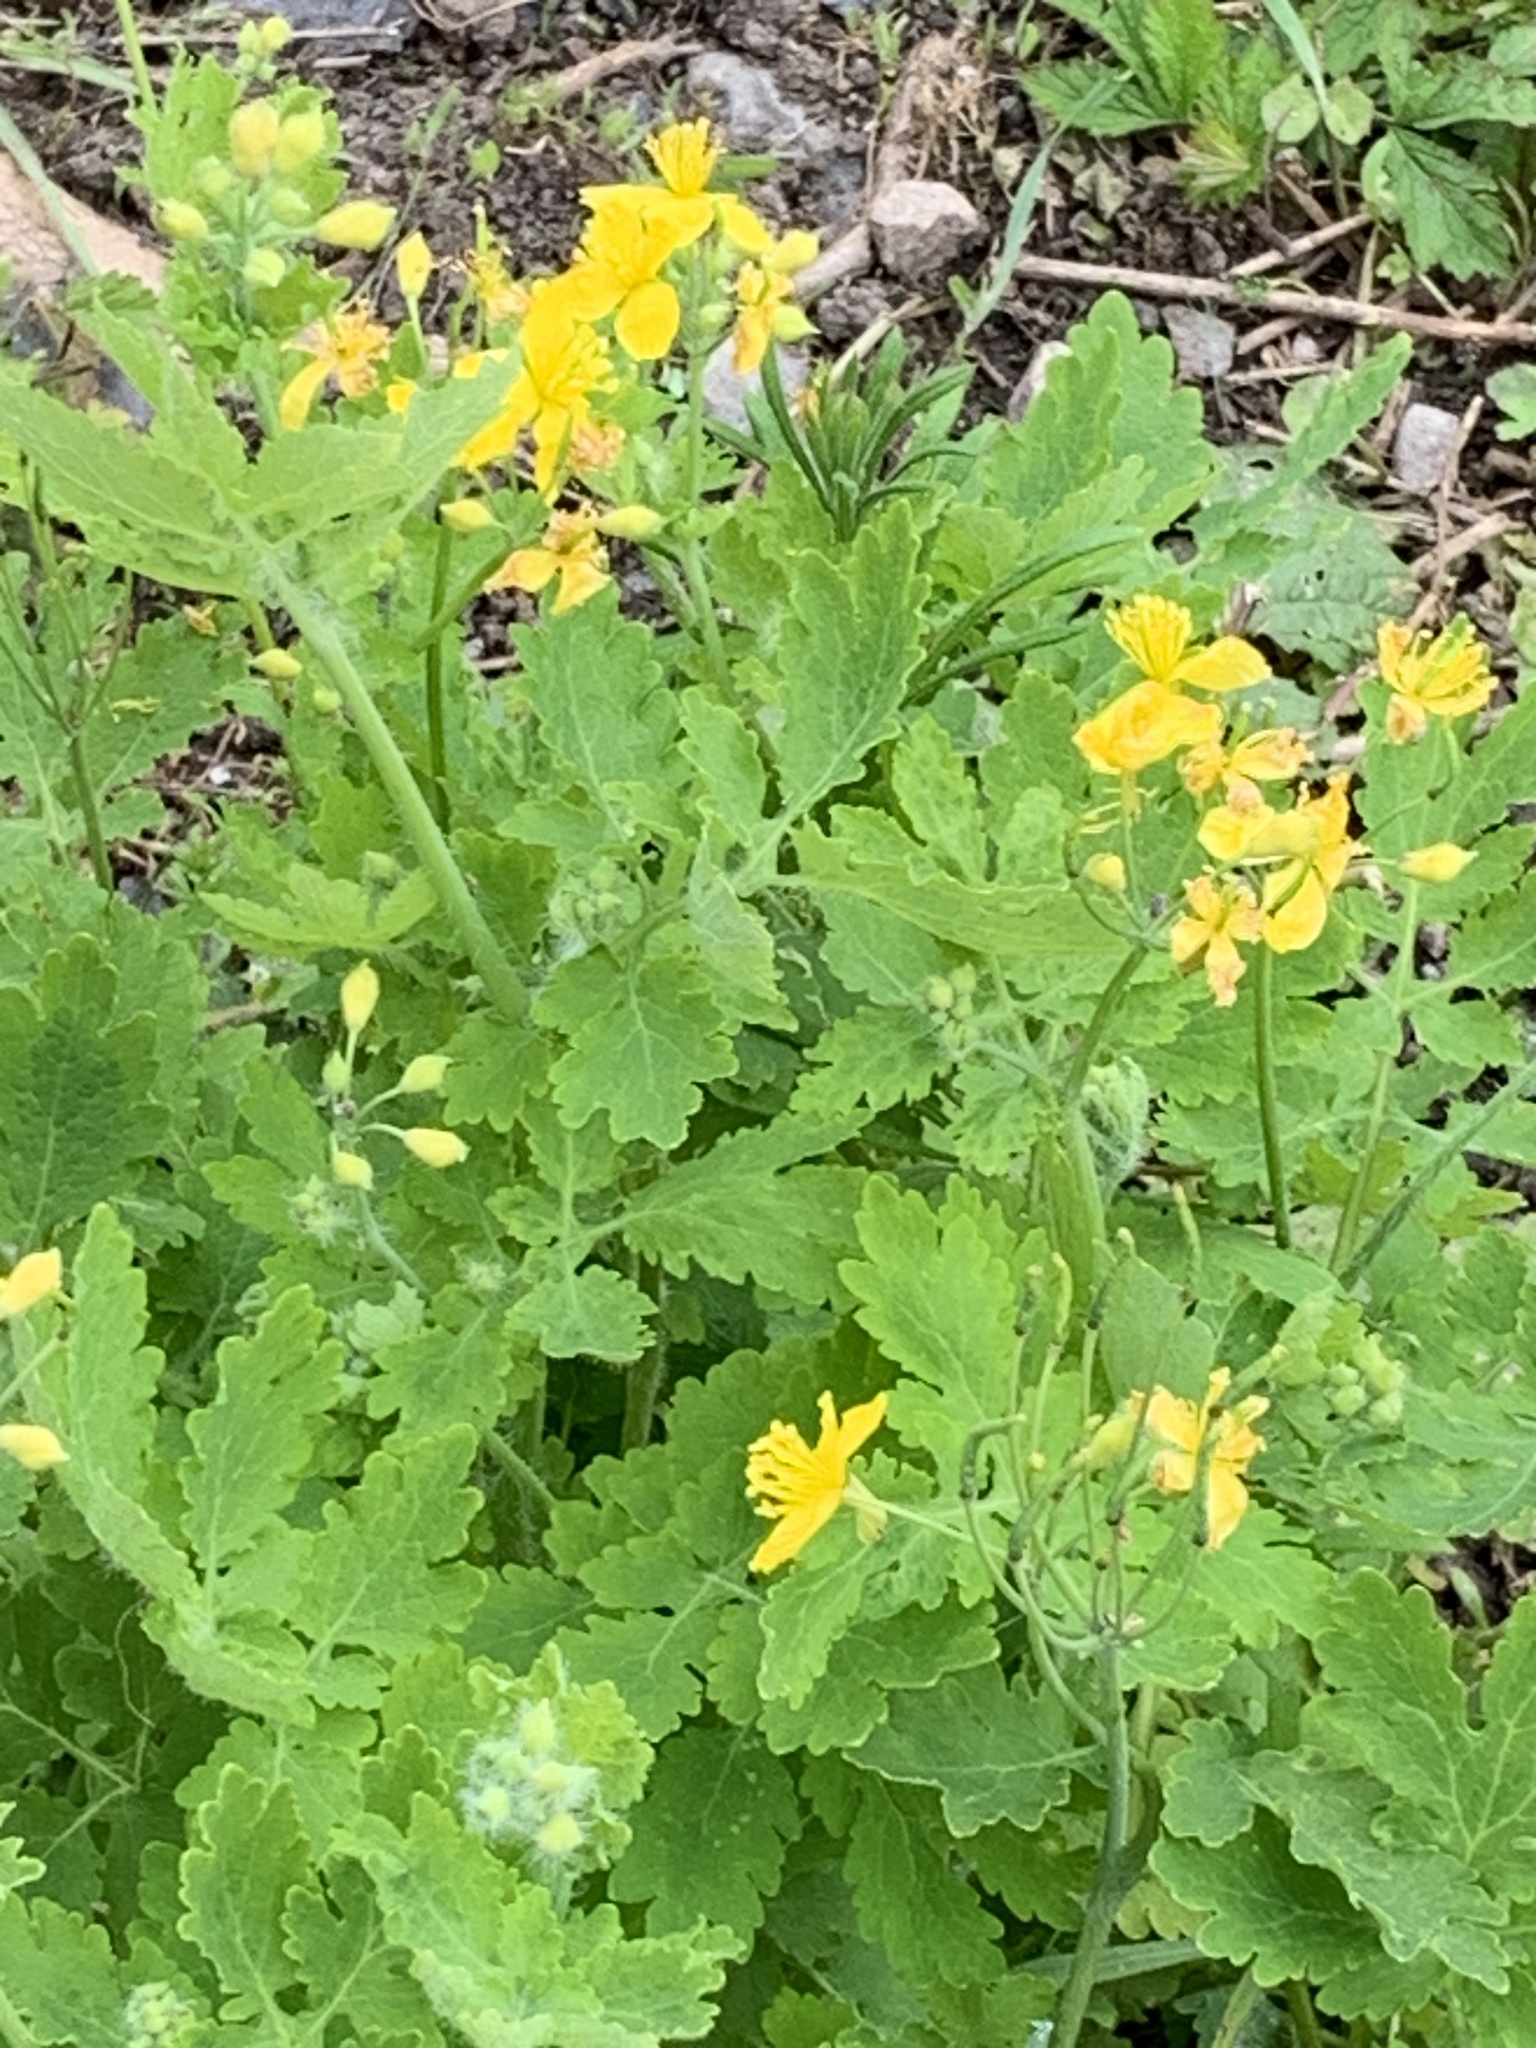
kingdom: Plantae
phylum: Tracheophyta
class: Magnoliopsida
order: Ranunculales
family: Papaveraceae
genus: Chelidonium
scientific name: Chelidonium majus
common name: Greater celandine
